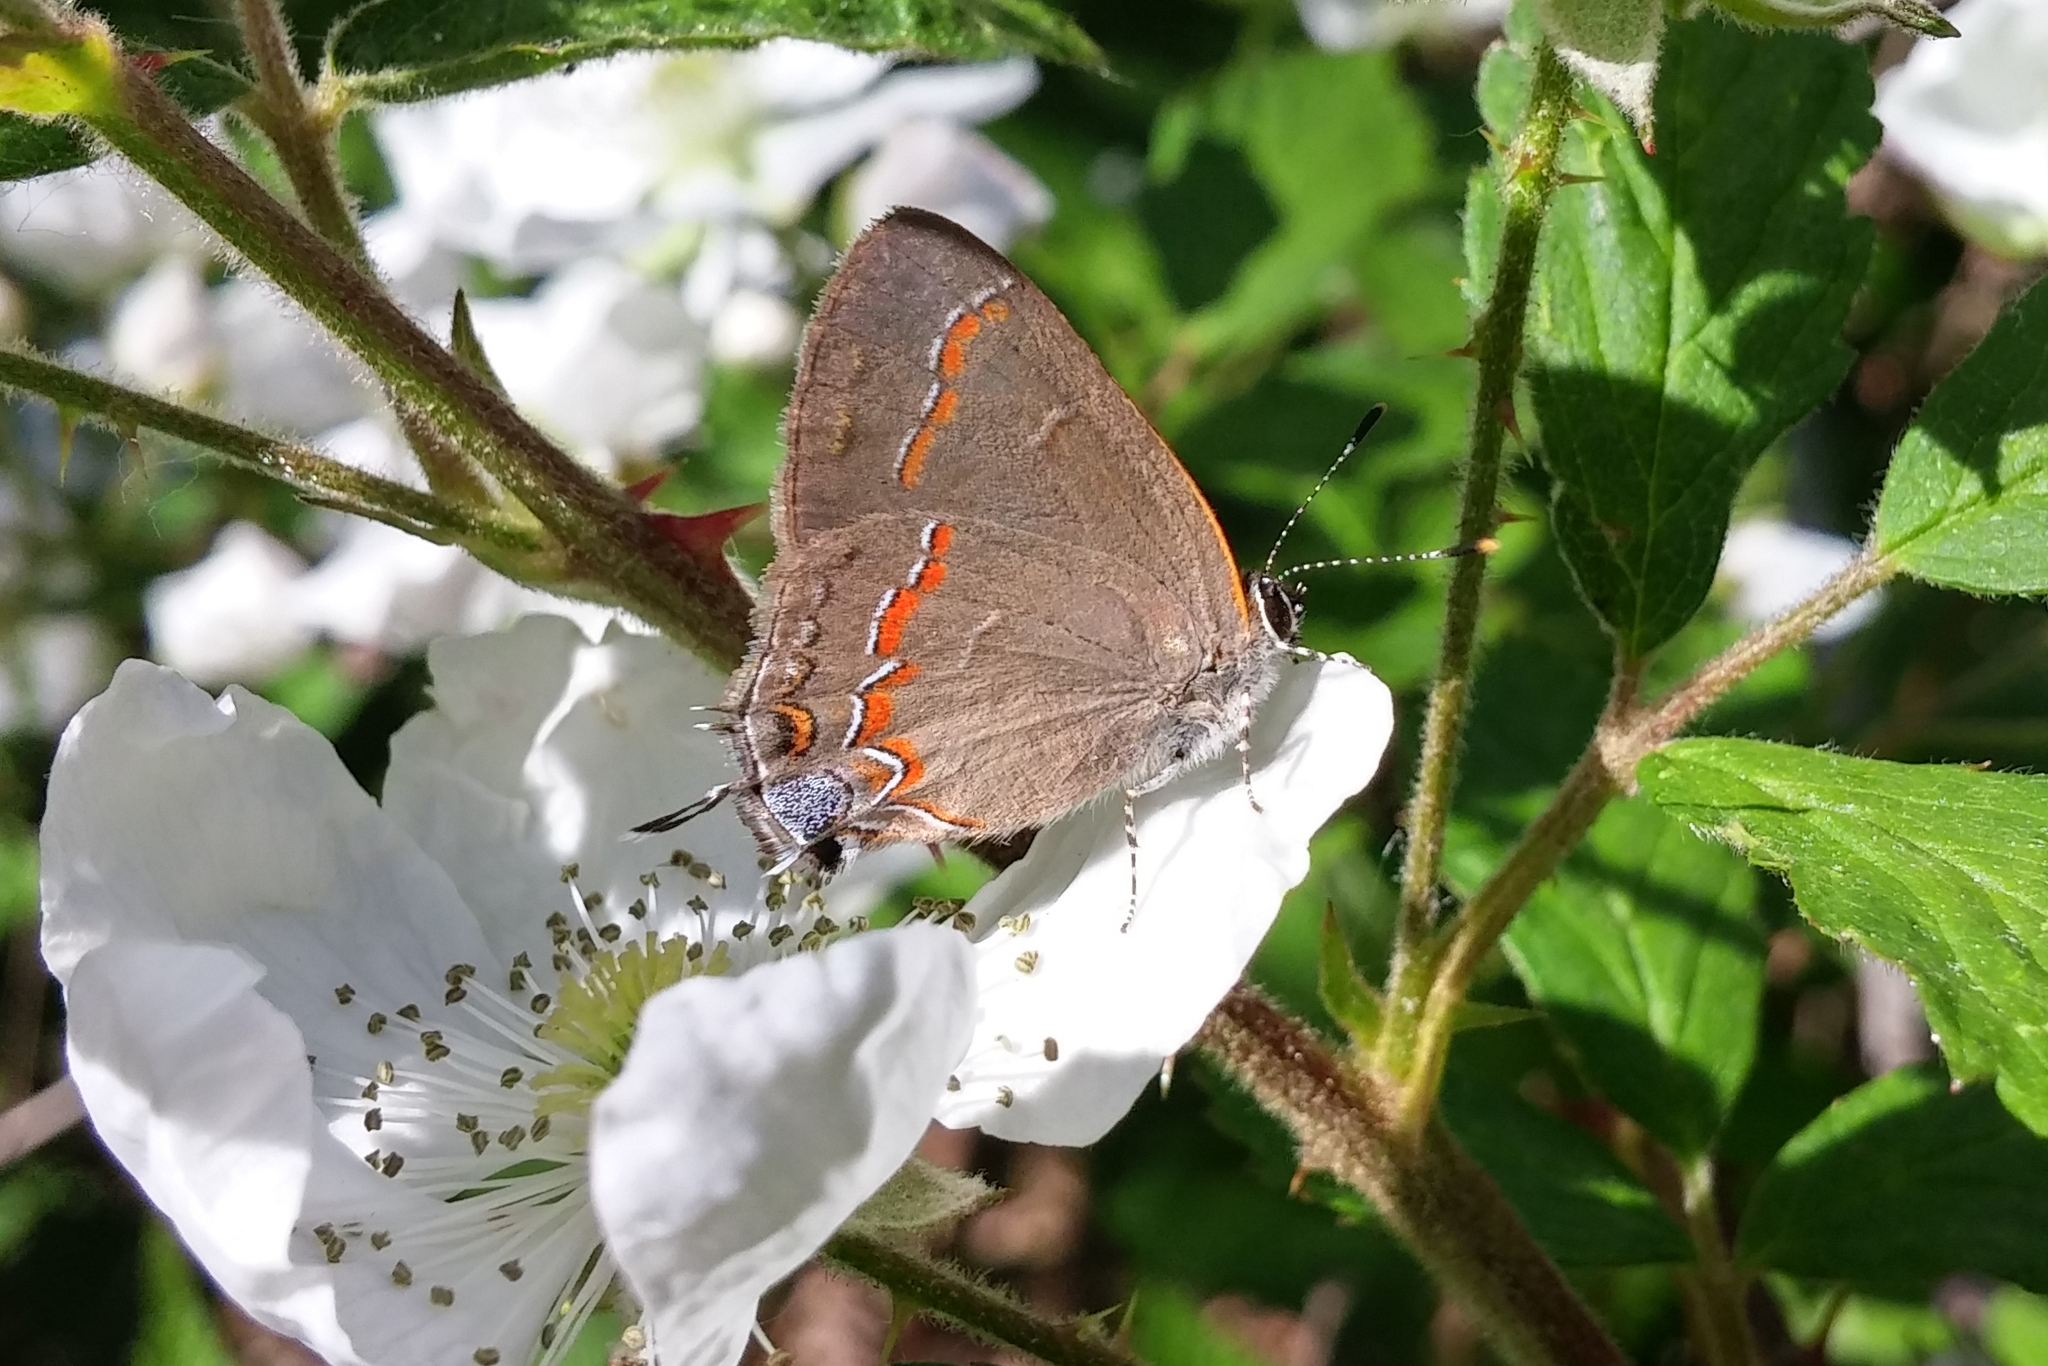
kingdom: Animalia
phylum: Arthropoda
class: Insecta
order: Lepidoptera
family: Lycaenidae
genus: Calycopis
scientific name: Calycopis cecrops
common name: Red-banded hairstreak
